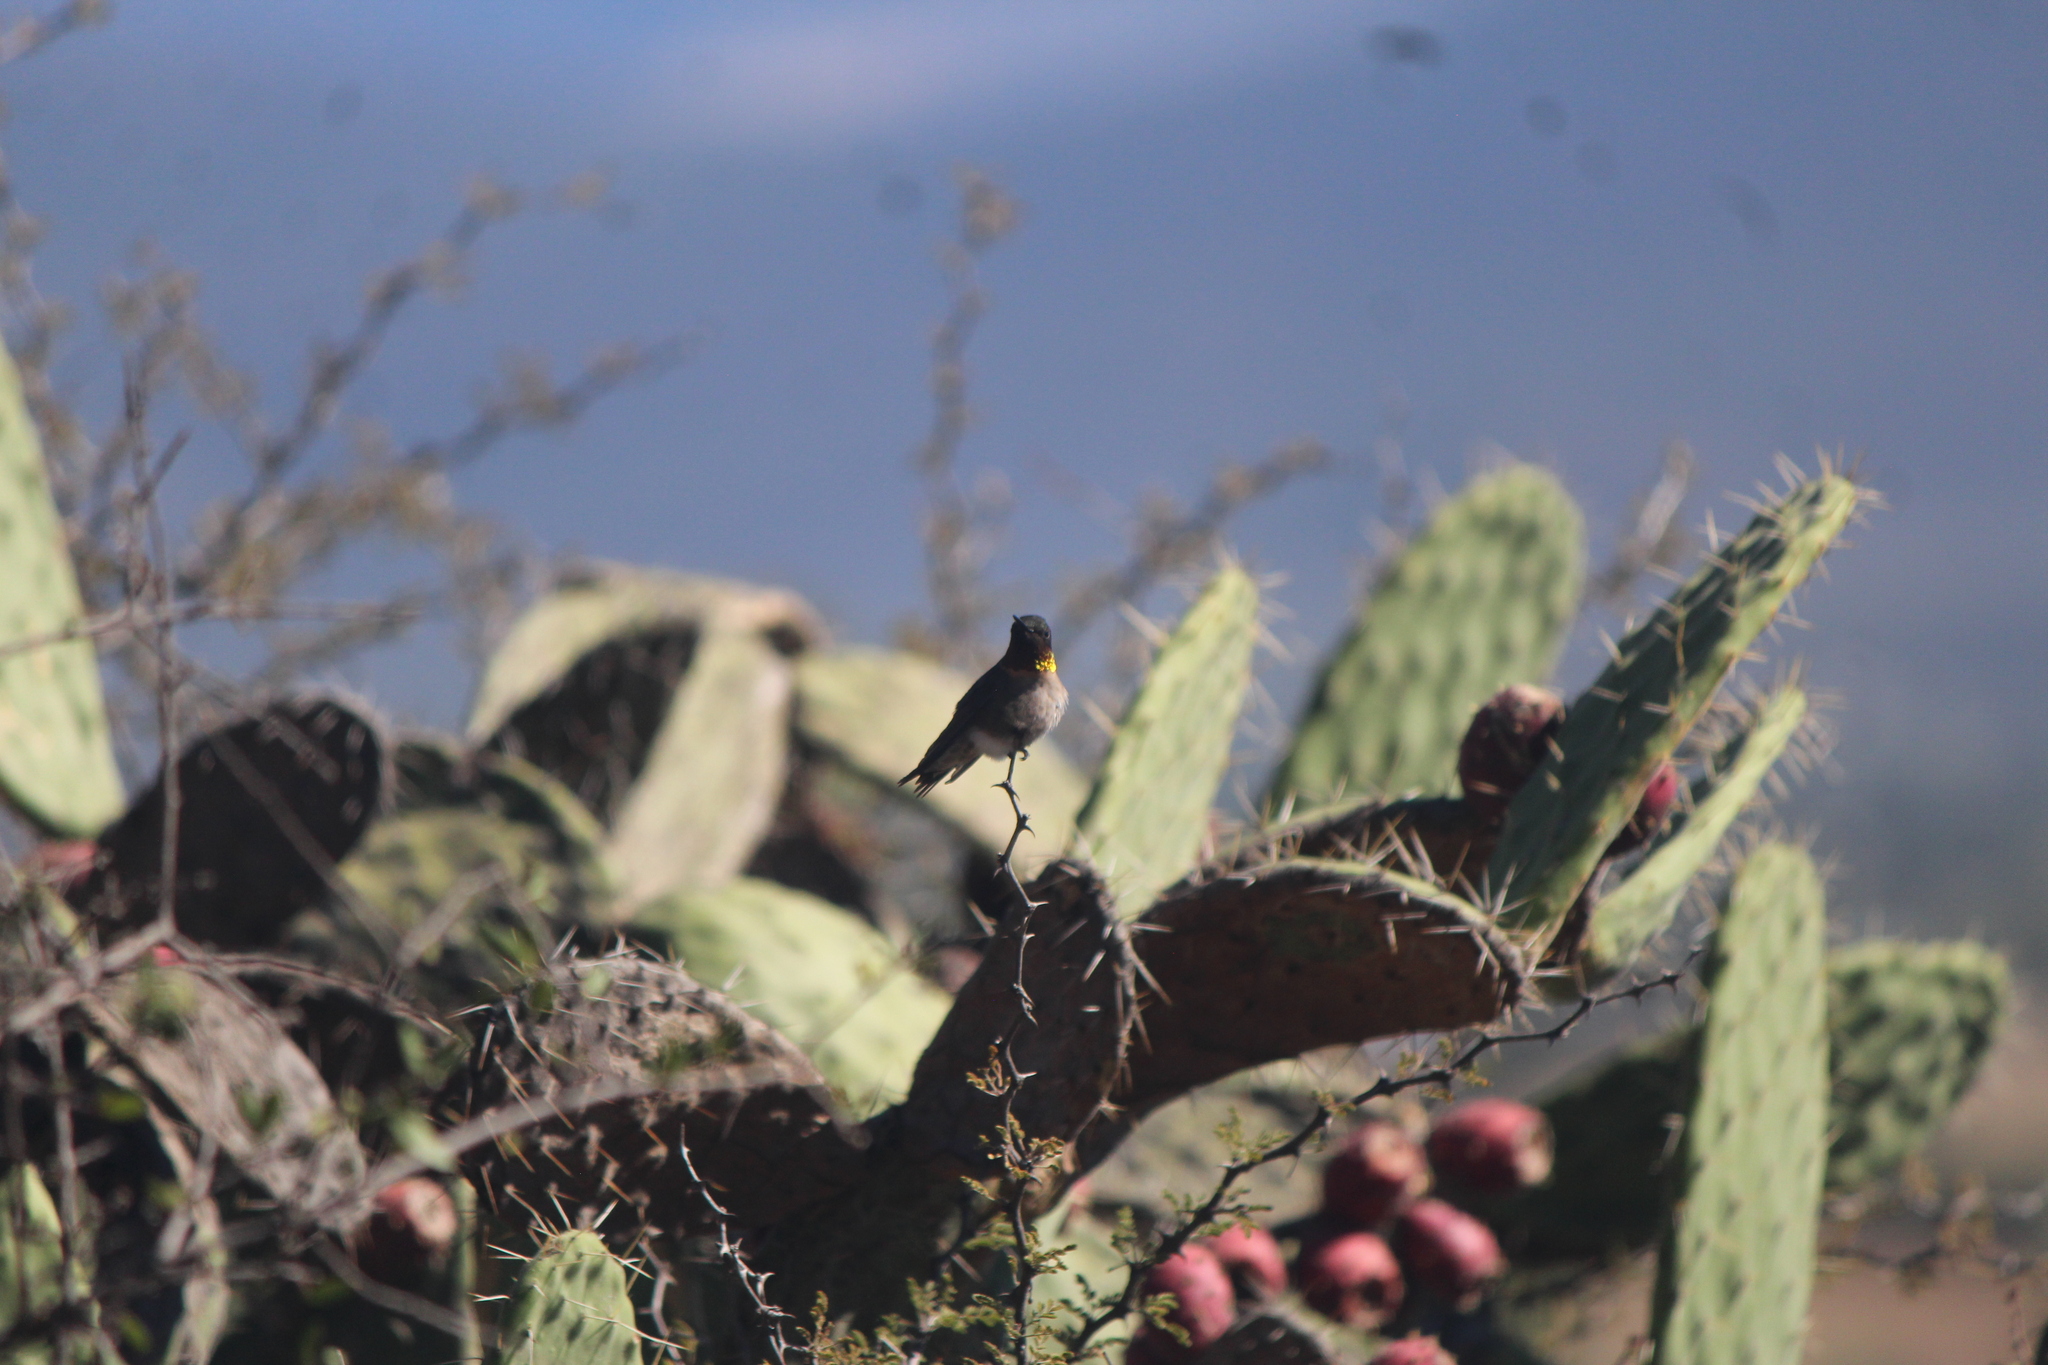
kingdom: Animalia
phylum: Chordata
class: Aves
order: Apodiformes
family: Trochilidae
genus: Archilochus
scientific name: Archilochus colubris
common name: Ruby-throated hummingbird
